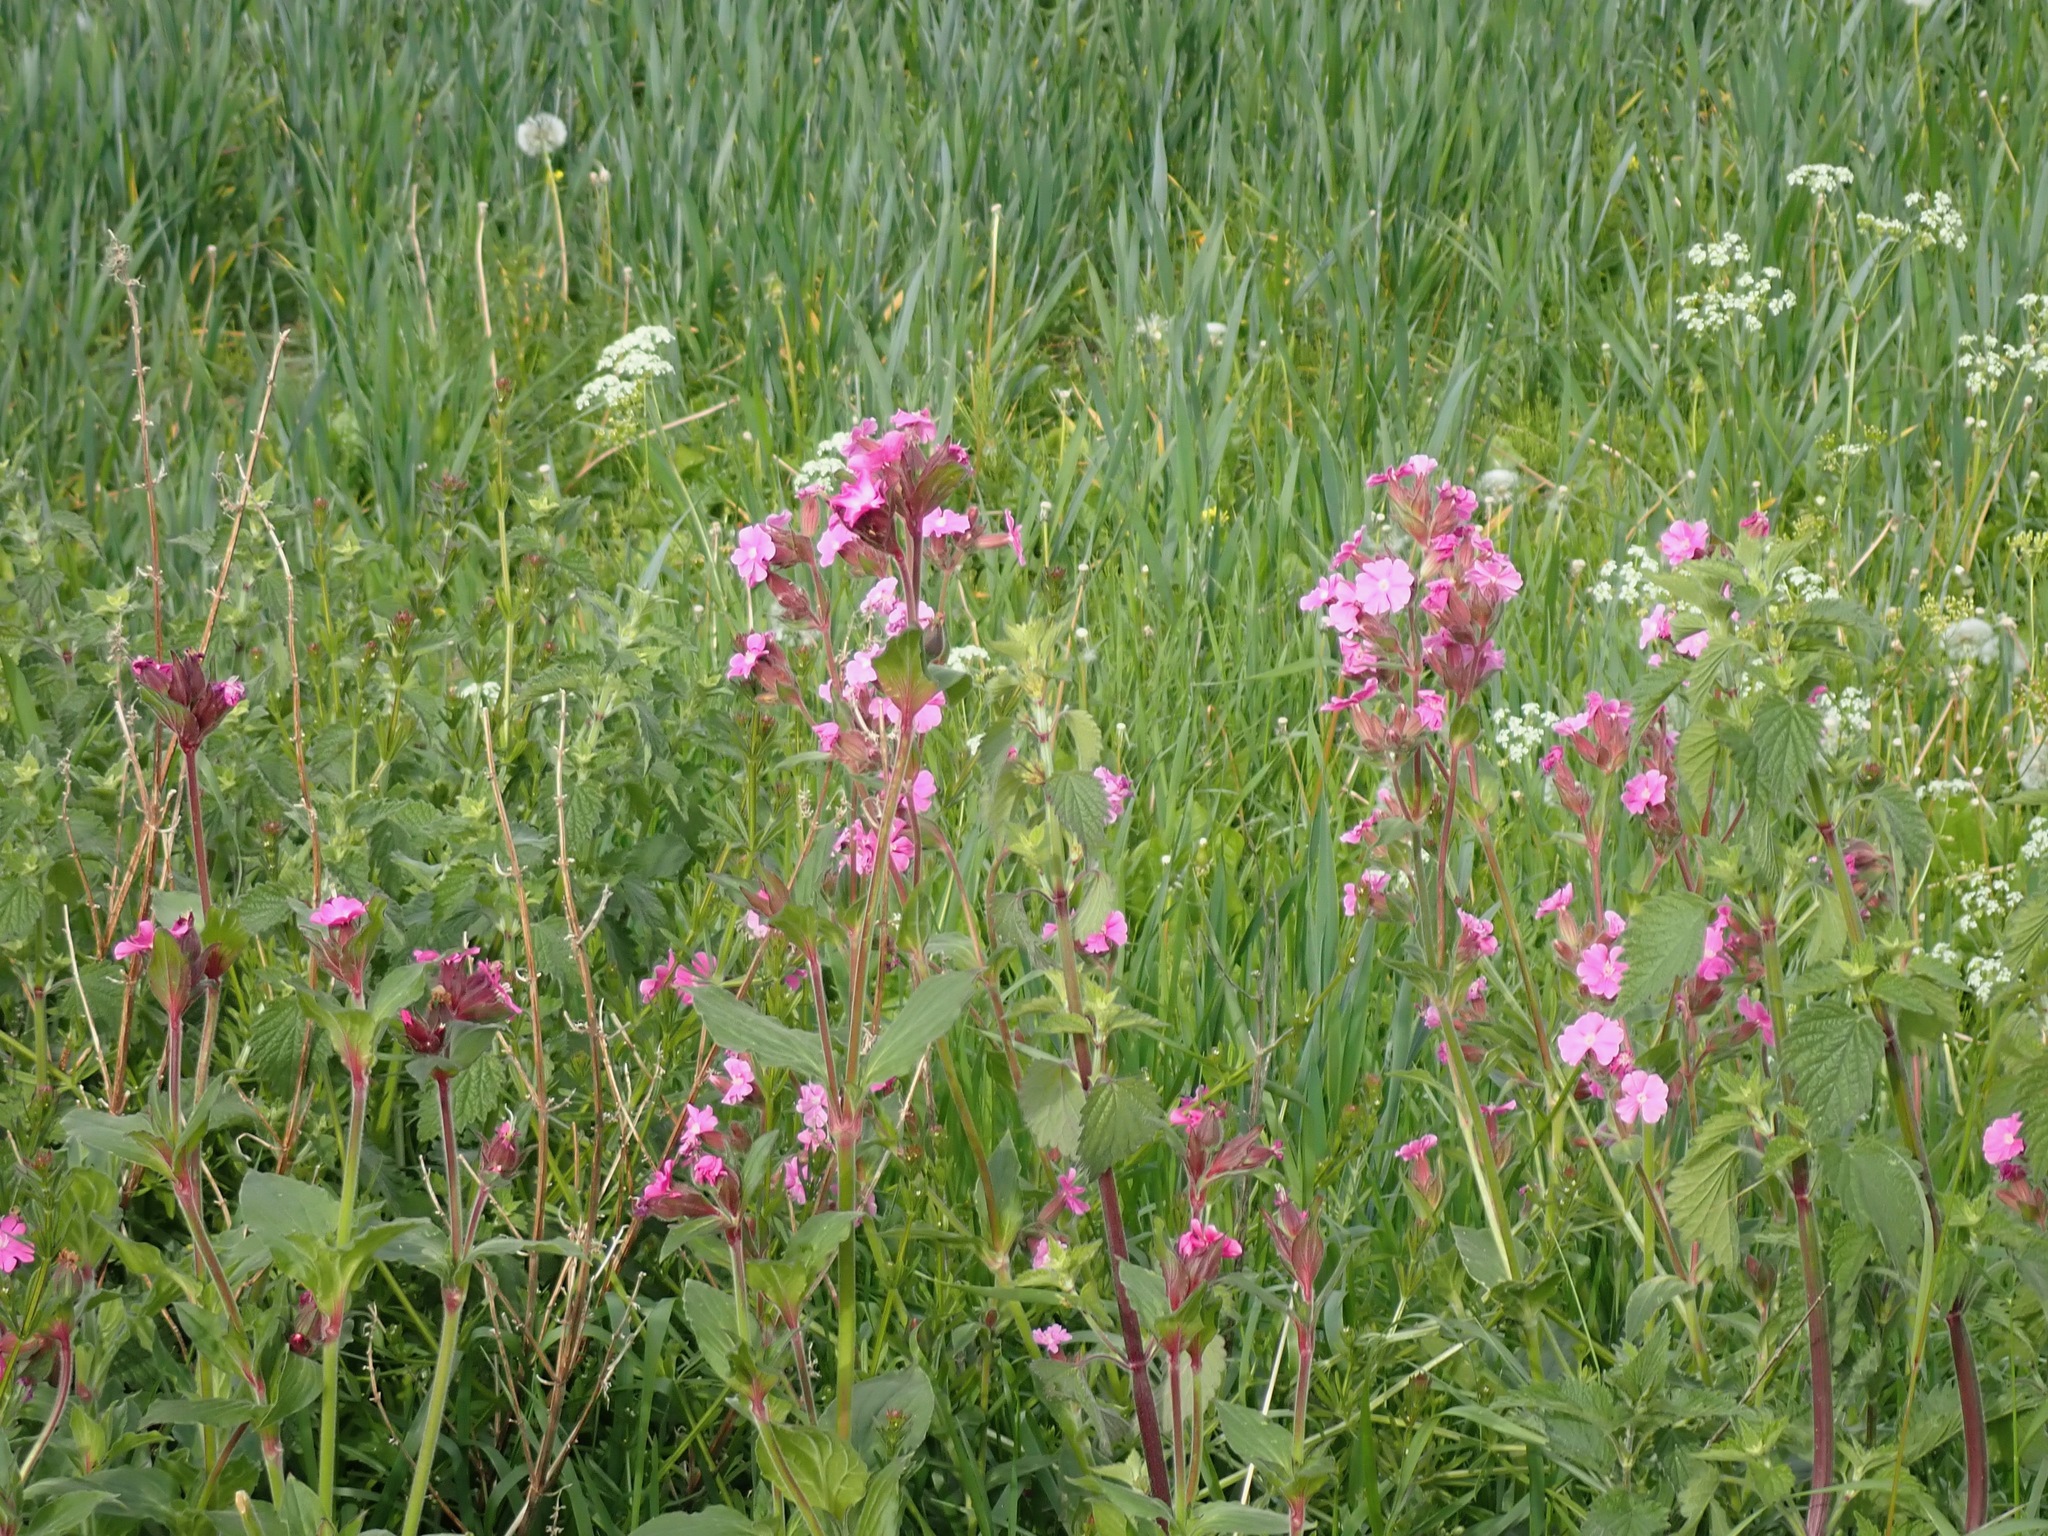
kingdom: Plantae
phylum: Tracheophyta
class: Magnoliopsida
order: Caryophyllales
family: Caryophyllaceae
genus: Silene
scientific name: Silene dioica
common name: Red campion
